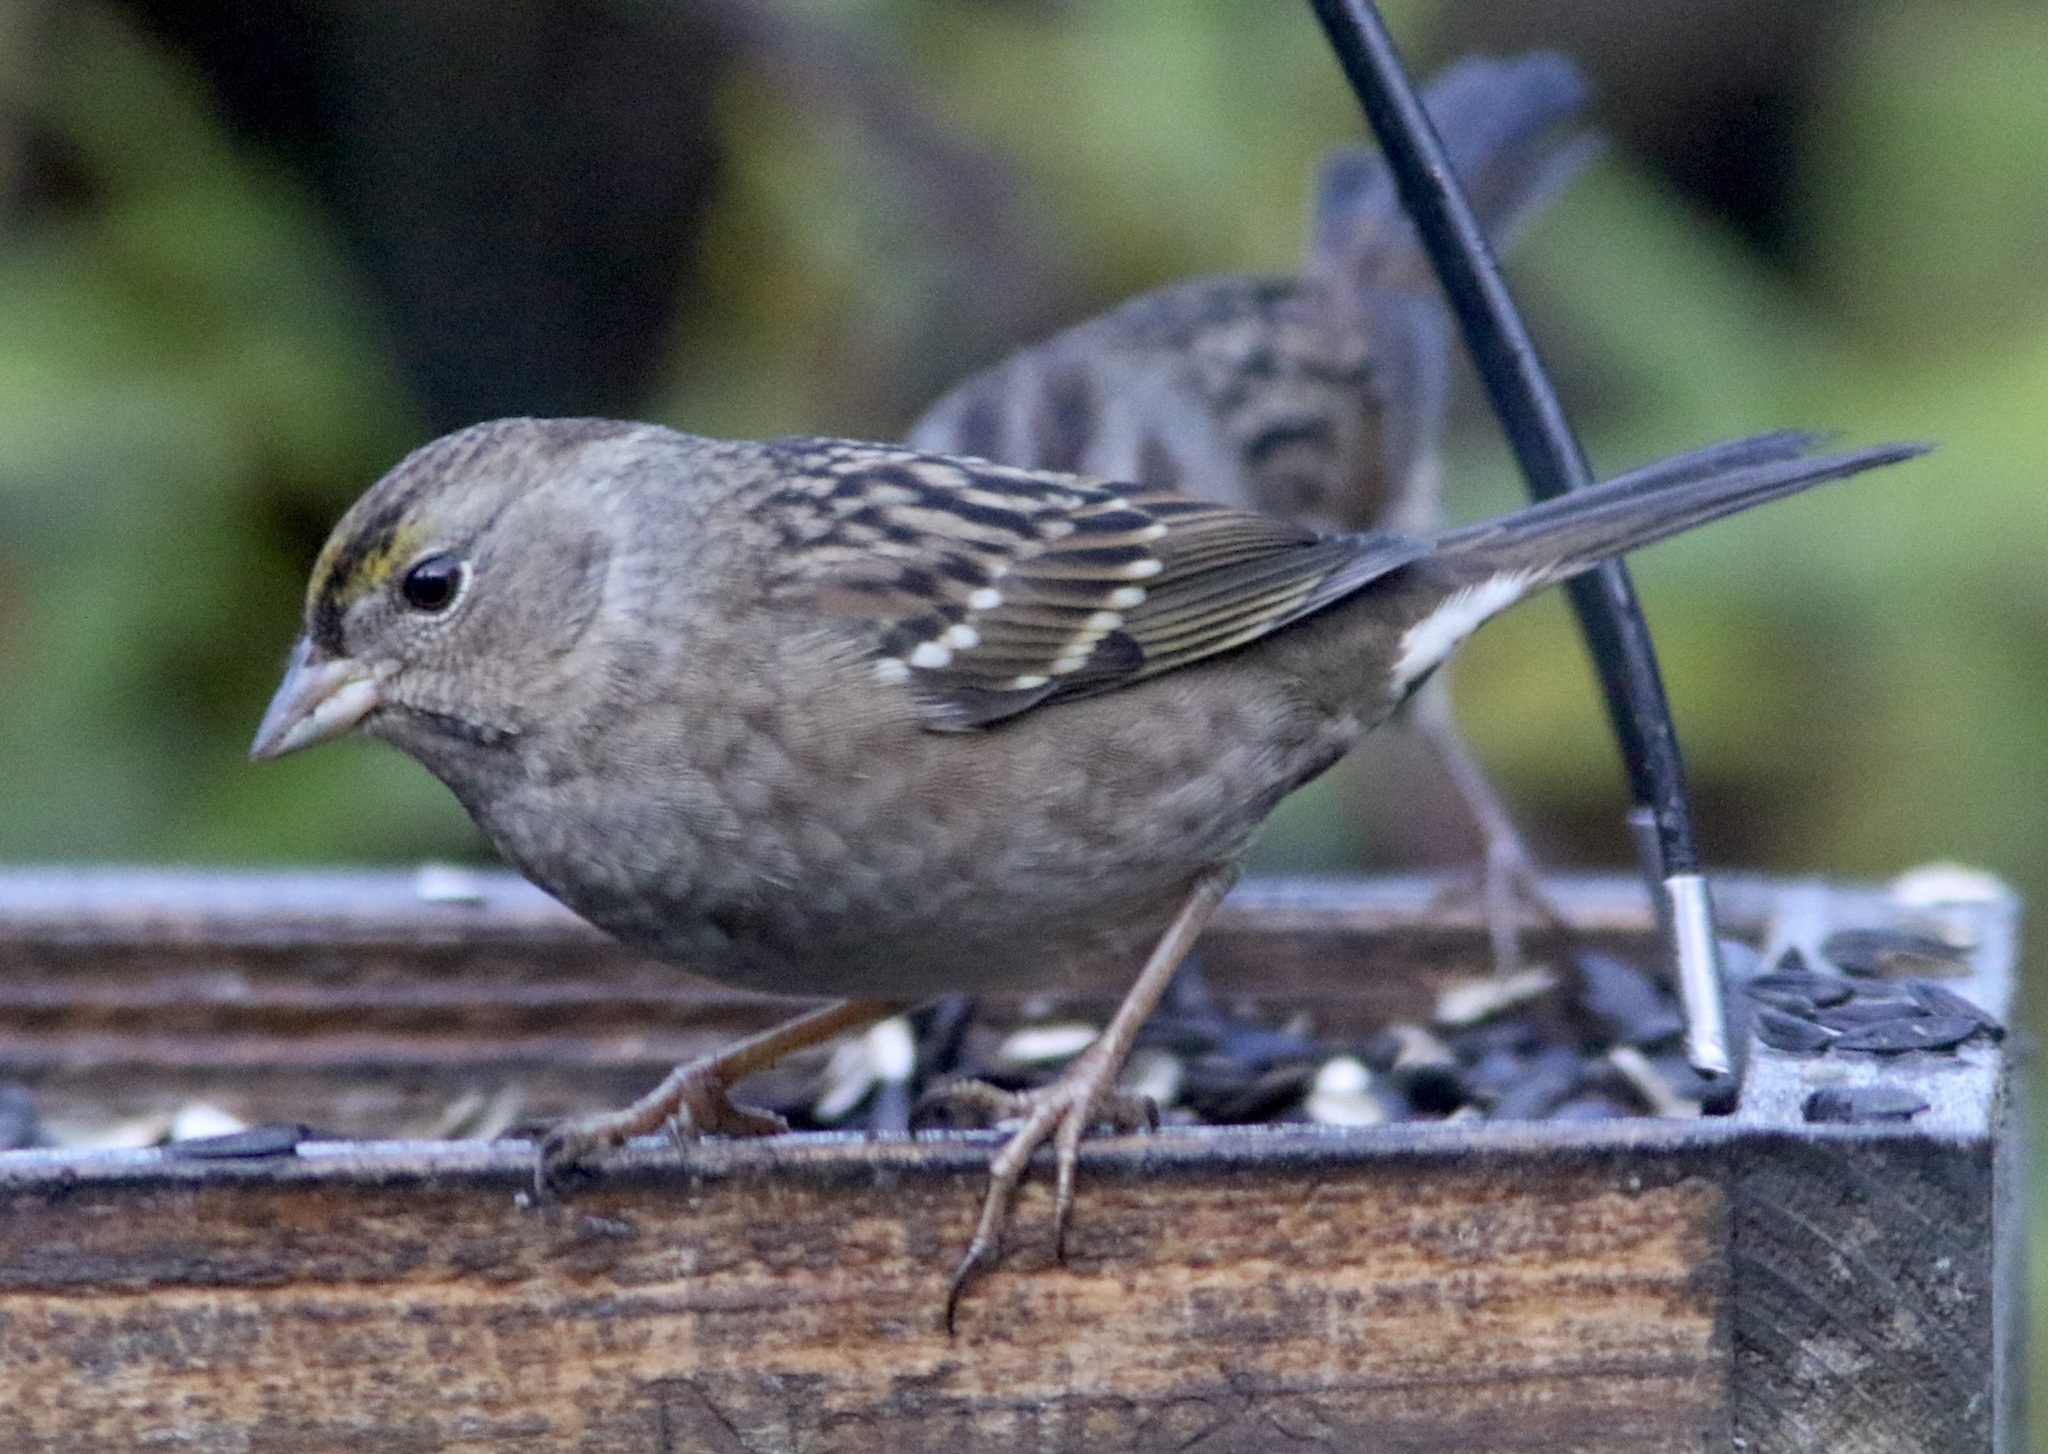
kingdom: Animalia
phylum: Chordata
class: Aves
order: Passeriformes
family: Passerellidae
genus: Zonotrichia
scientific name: Zonotrichia atricapilla
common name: Golden-crowned sparrow
